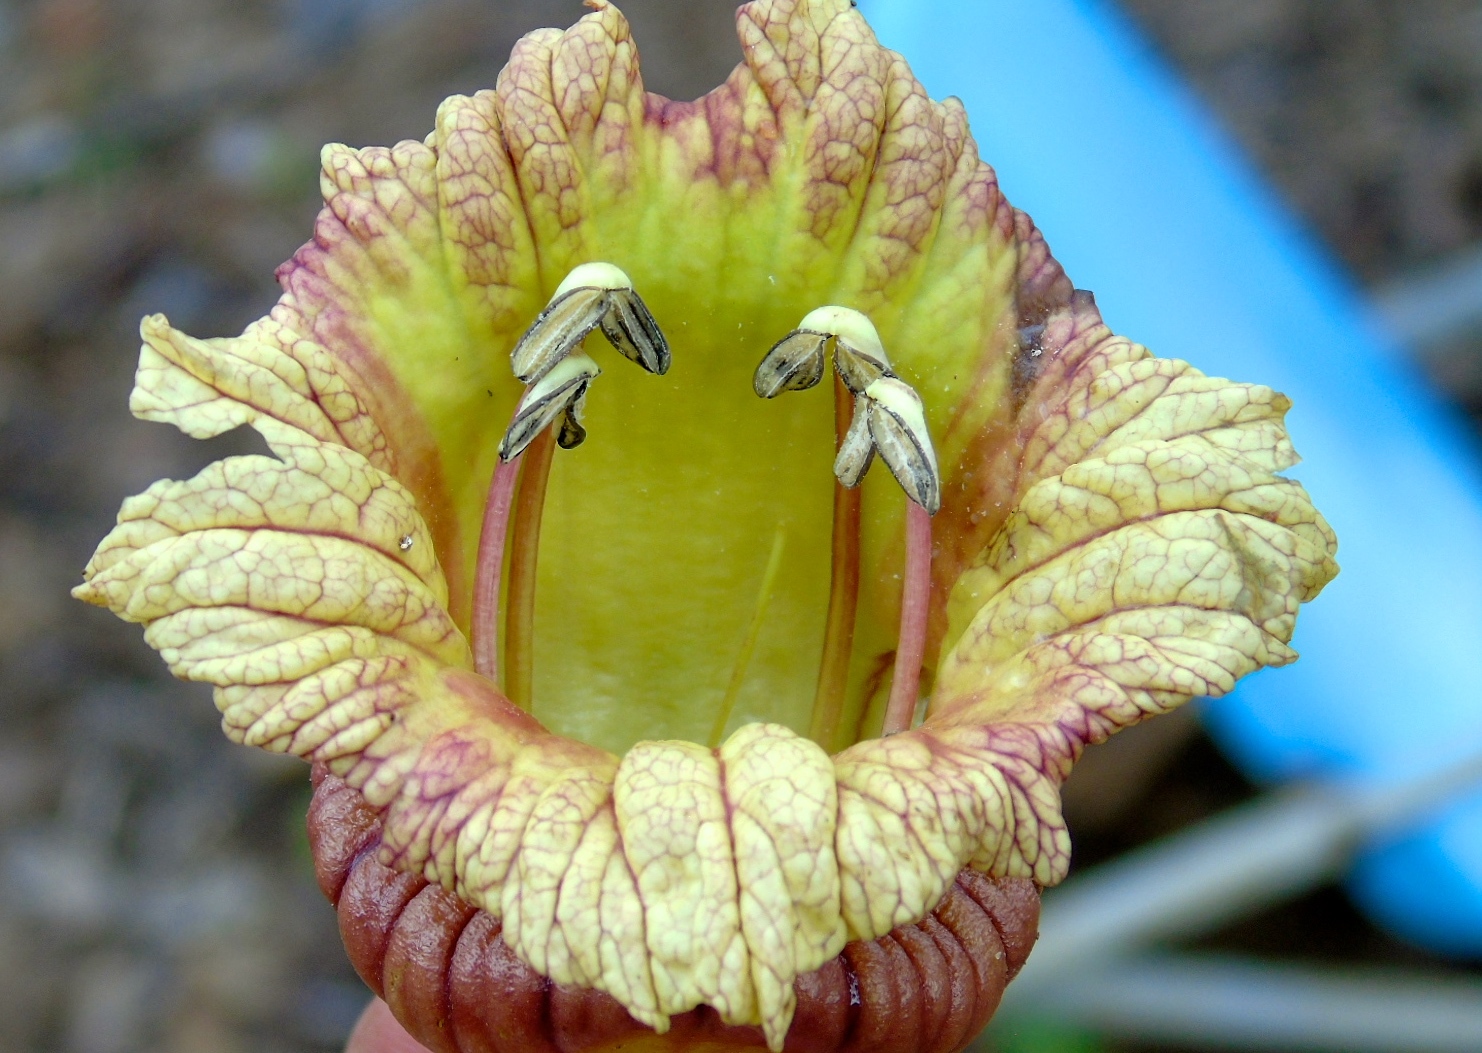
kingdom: Plantae
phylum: Tracheophyta
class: Magnoliopsida
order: Lamiales
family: Bignoniaceae
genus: Crescentia
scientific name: Crescentia alata
